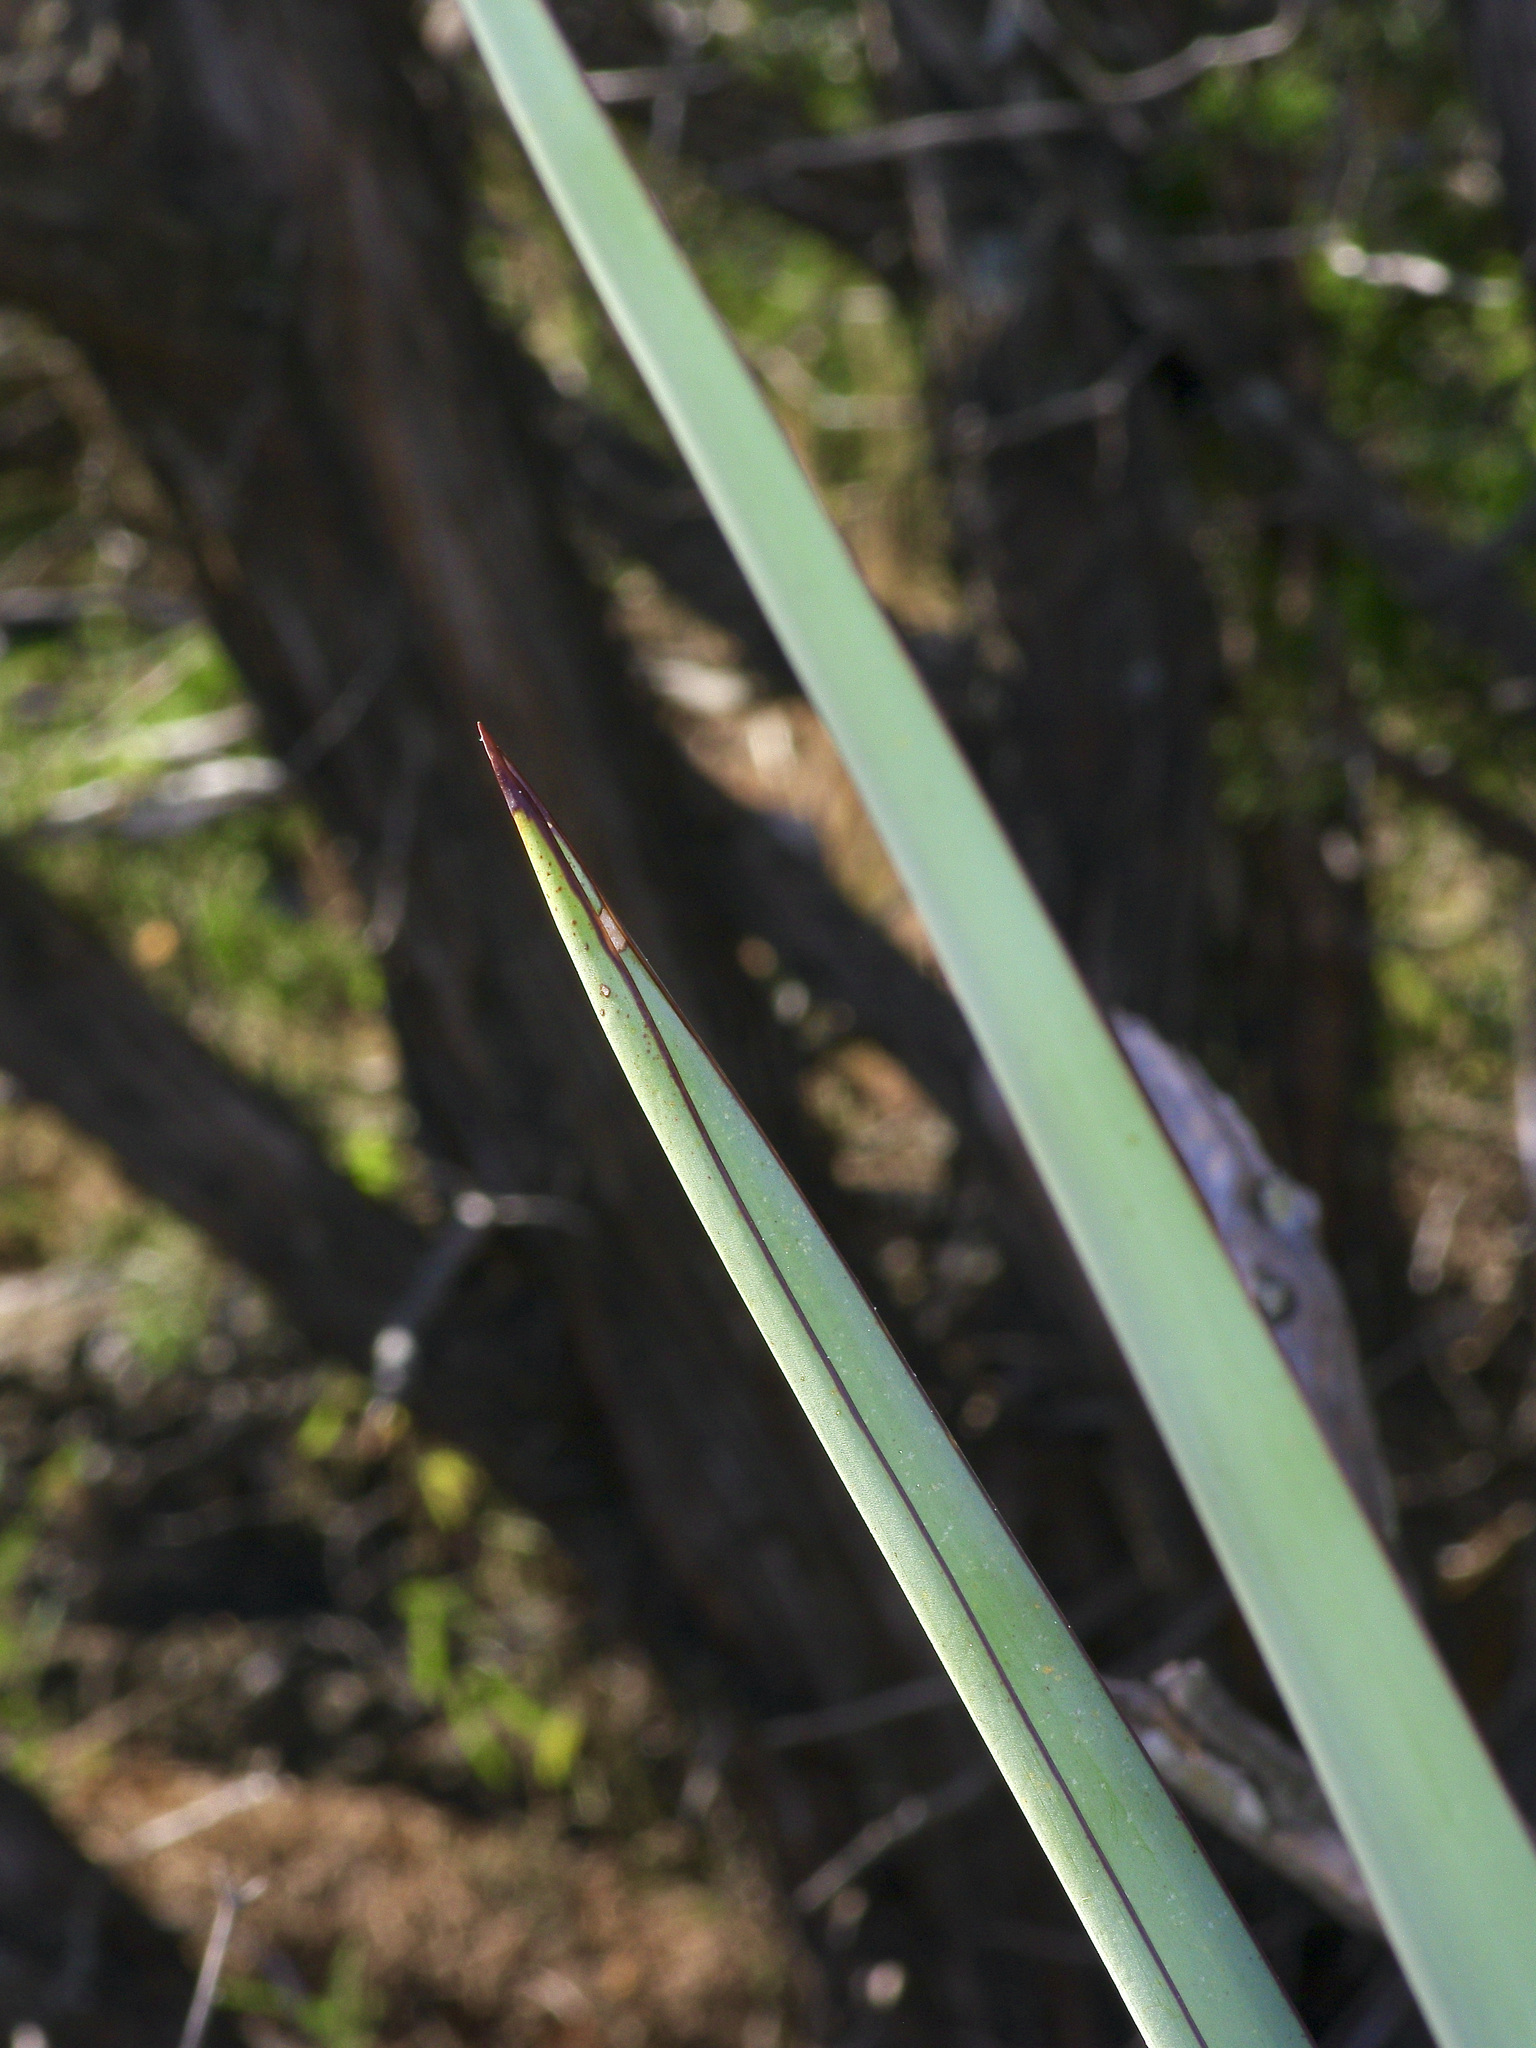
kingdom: Plantae
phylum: Tracheophyta
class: Liliopsida
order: Asparagales
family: Asparagaceae
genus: Yucca
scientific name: Yucca treculiana
